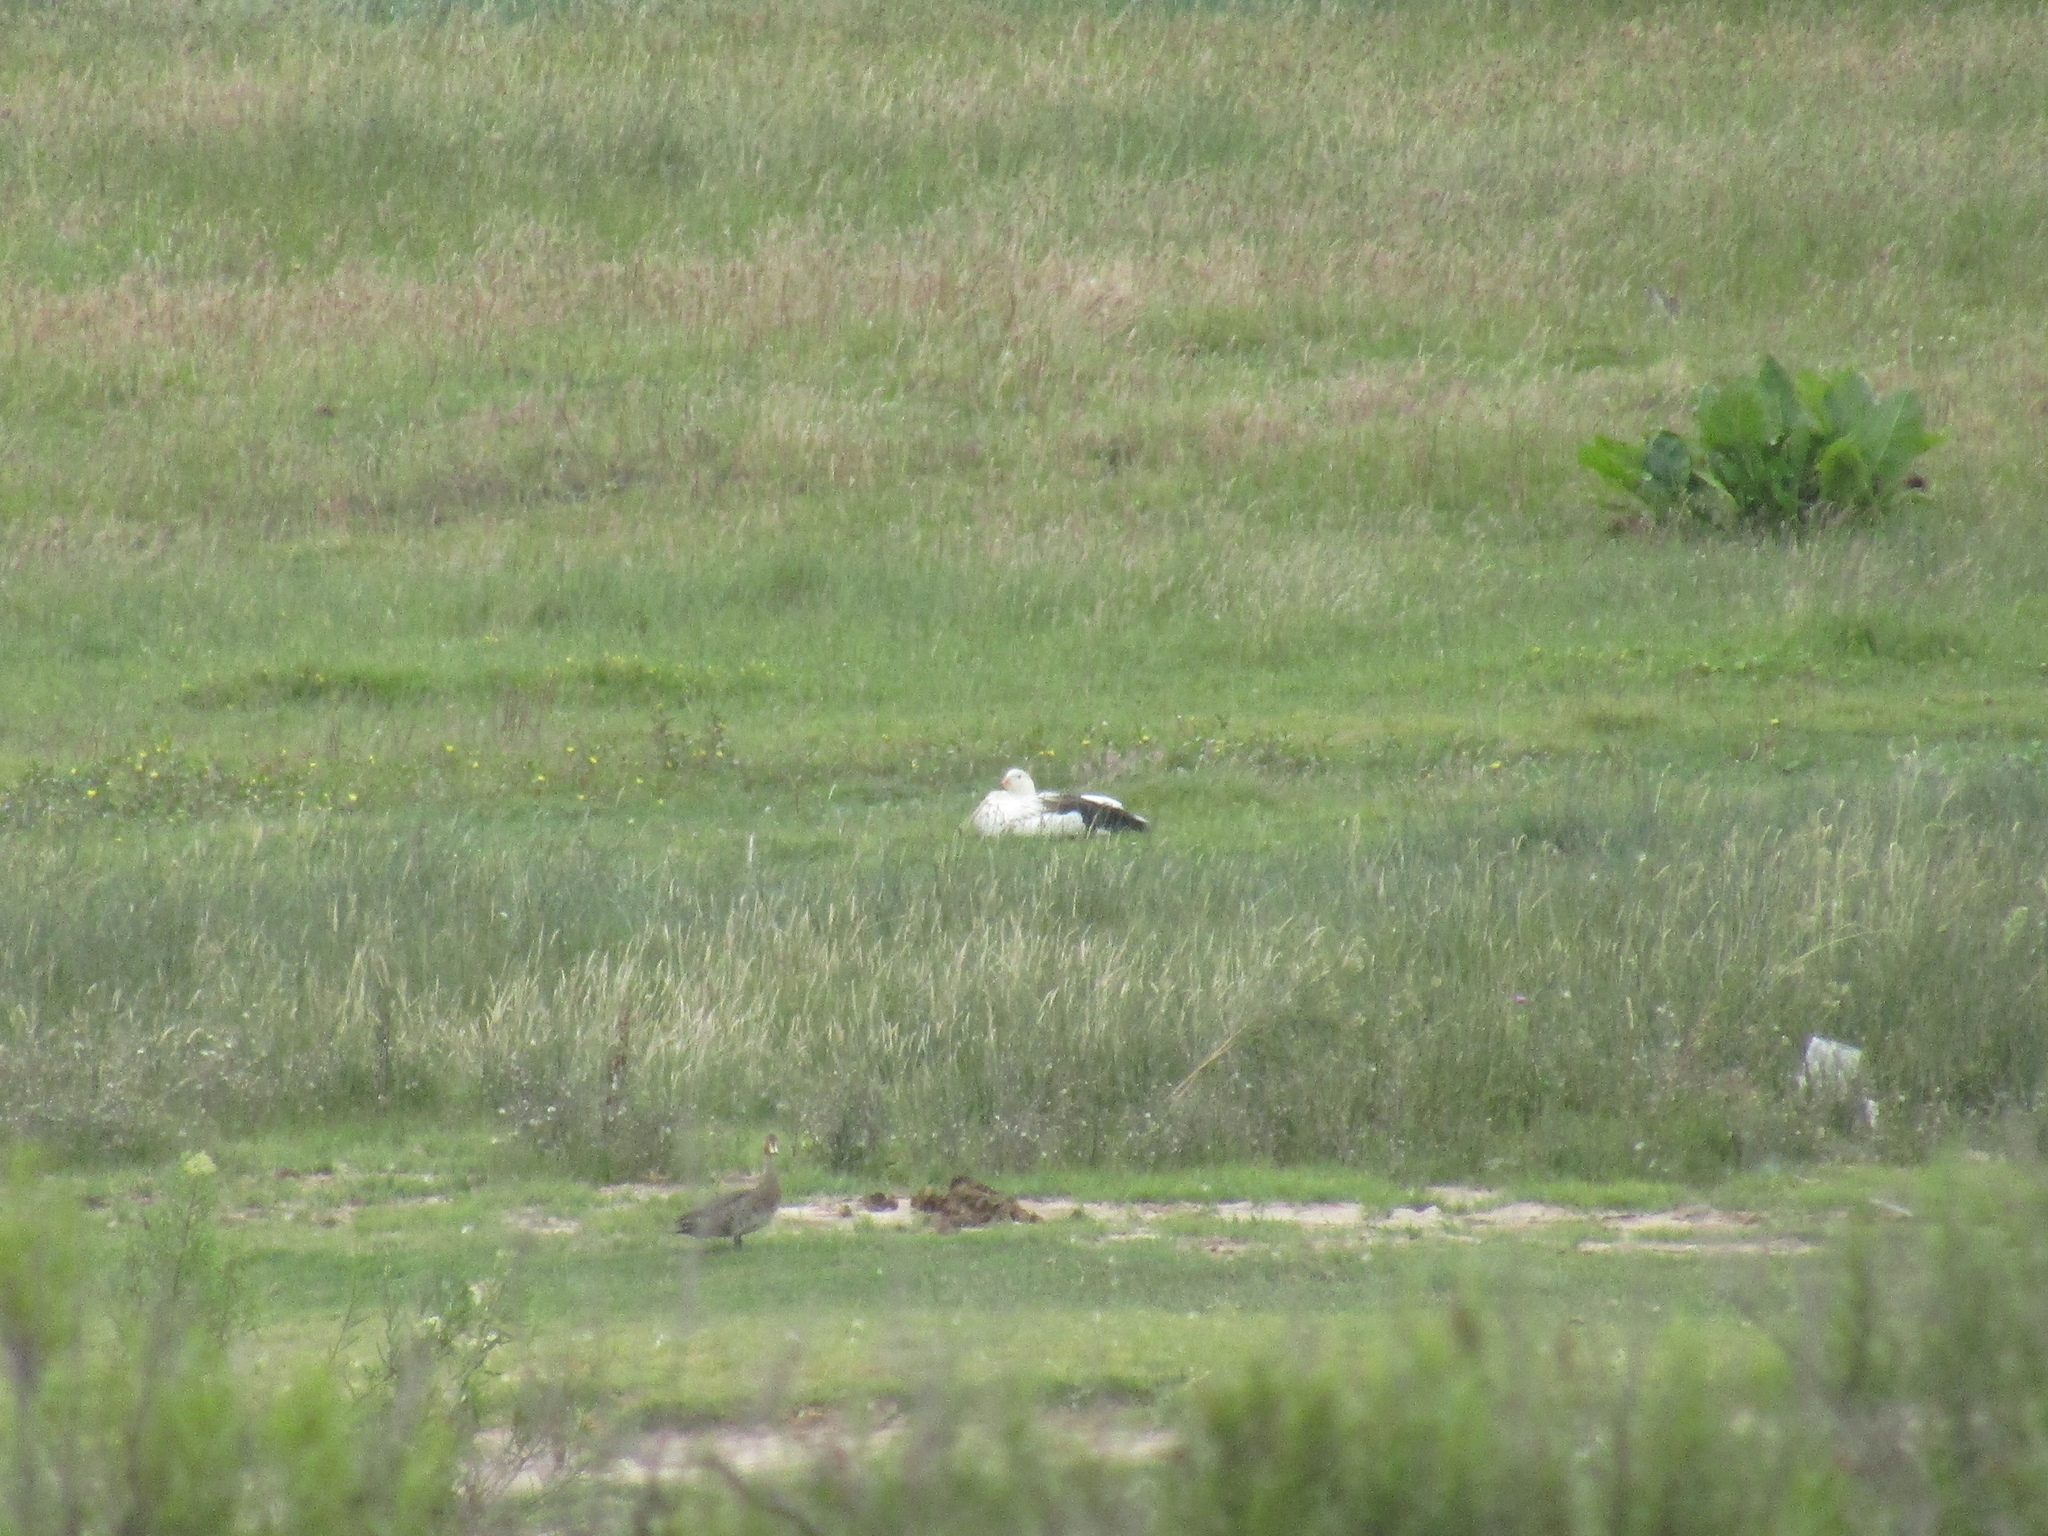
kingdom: Animalia
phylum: Chordata
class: Aves
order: Anseriformes
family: Anatidae
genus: Chloephaga
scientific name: Chloephaga melanoptera
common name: Andean goose
